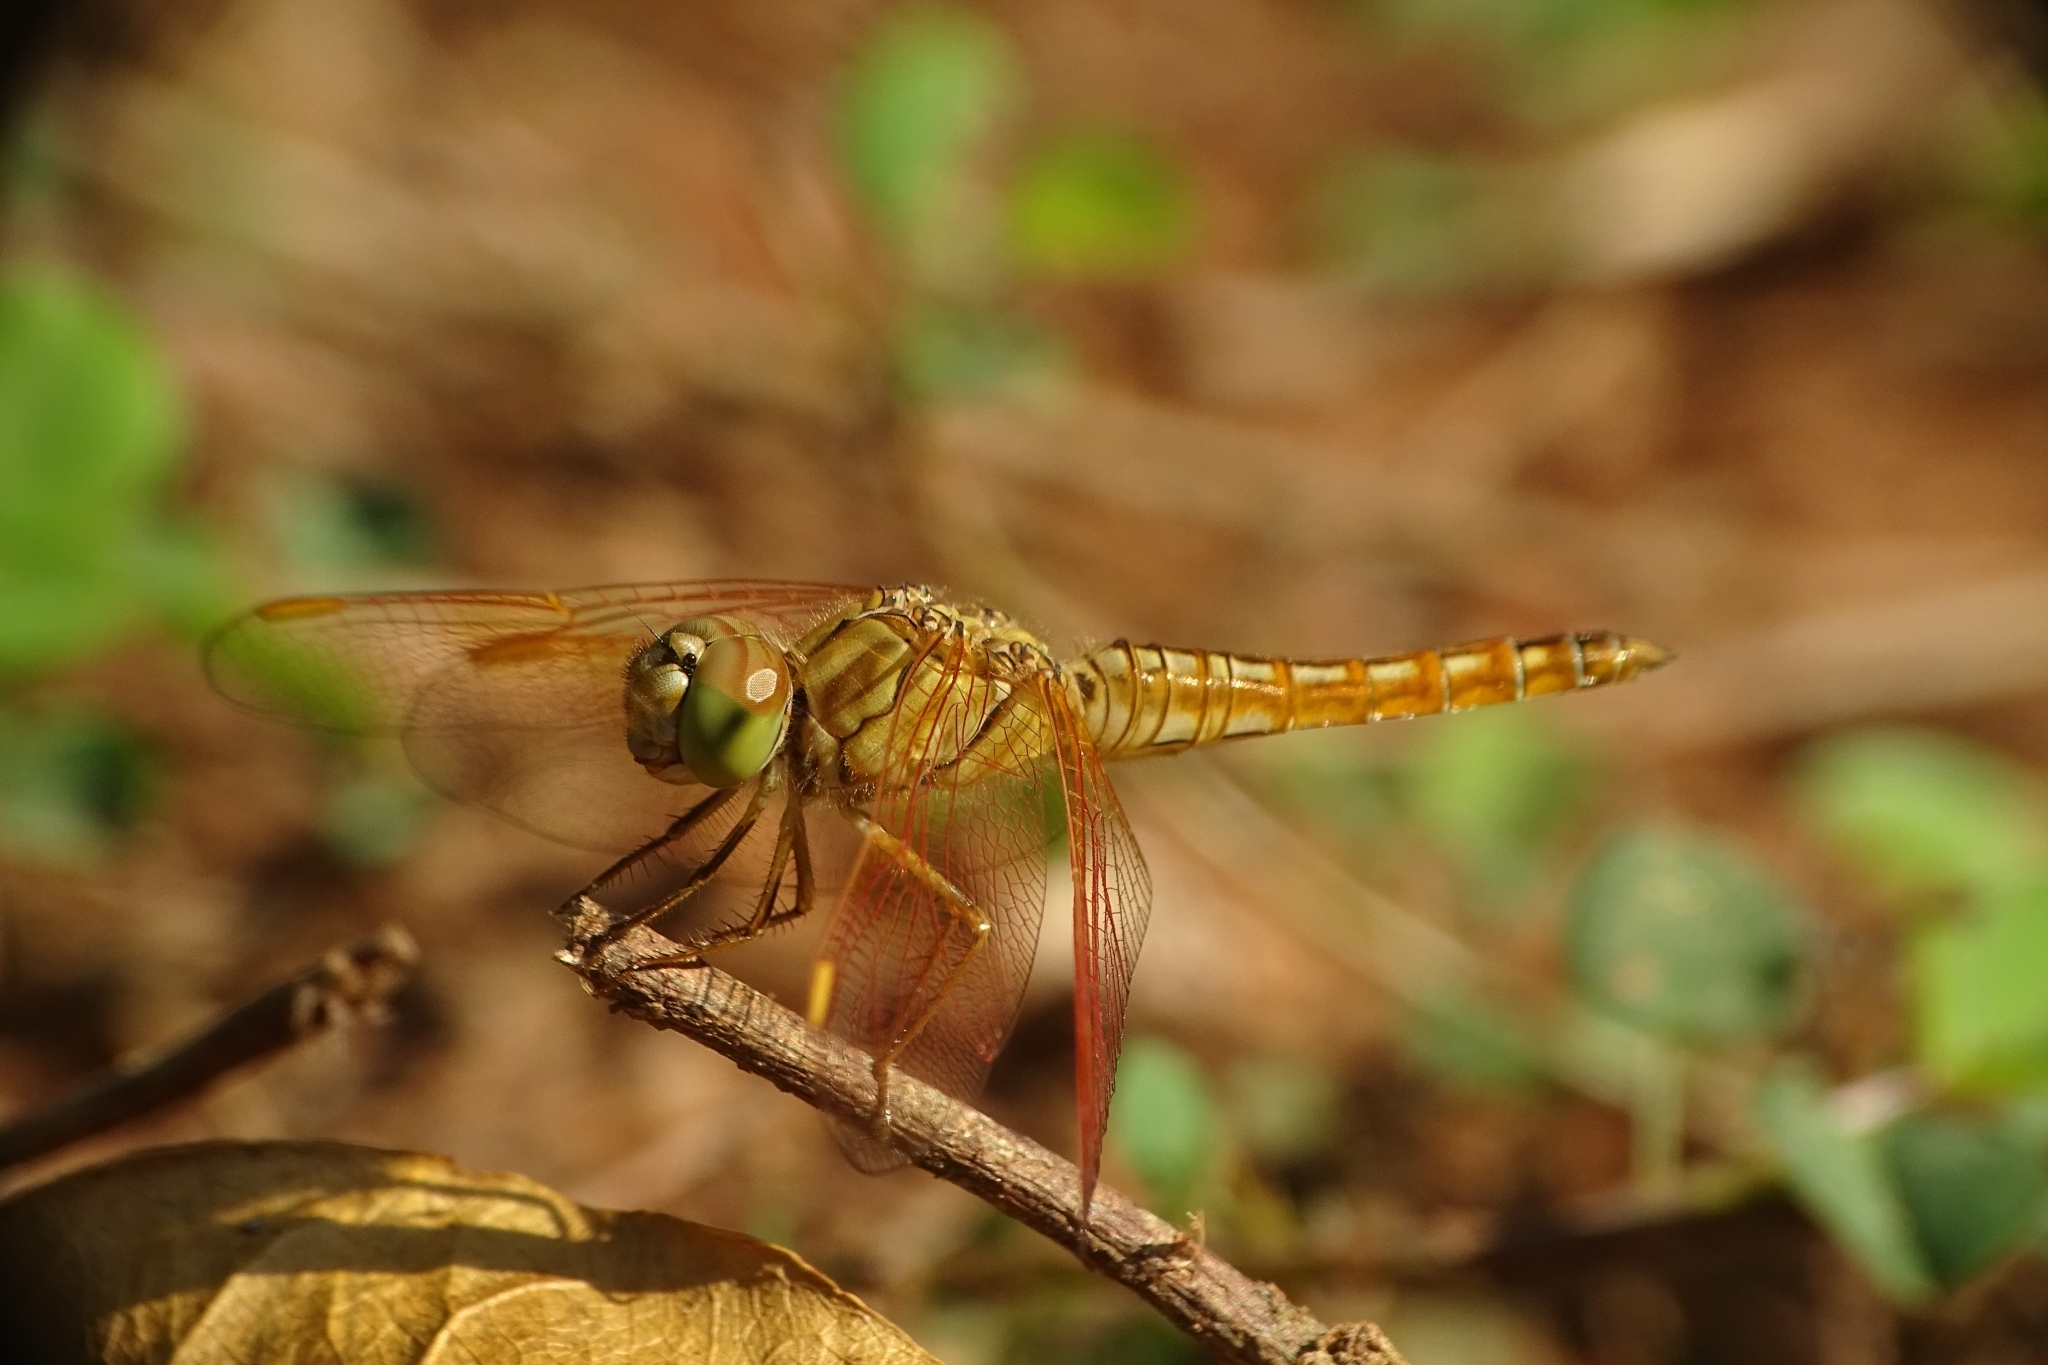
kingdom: Animalia
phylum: Arthropoda
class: Insecta
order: Odonata
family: Libellulidae
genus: Brachythemis
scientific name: Brachythemis contaminata
